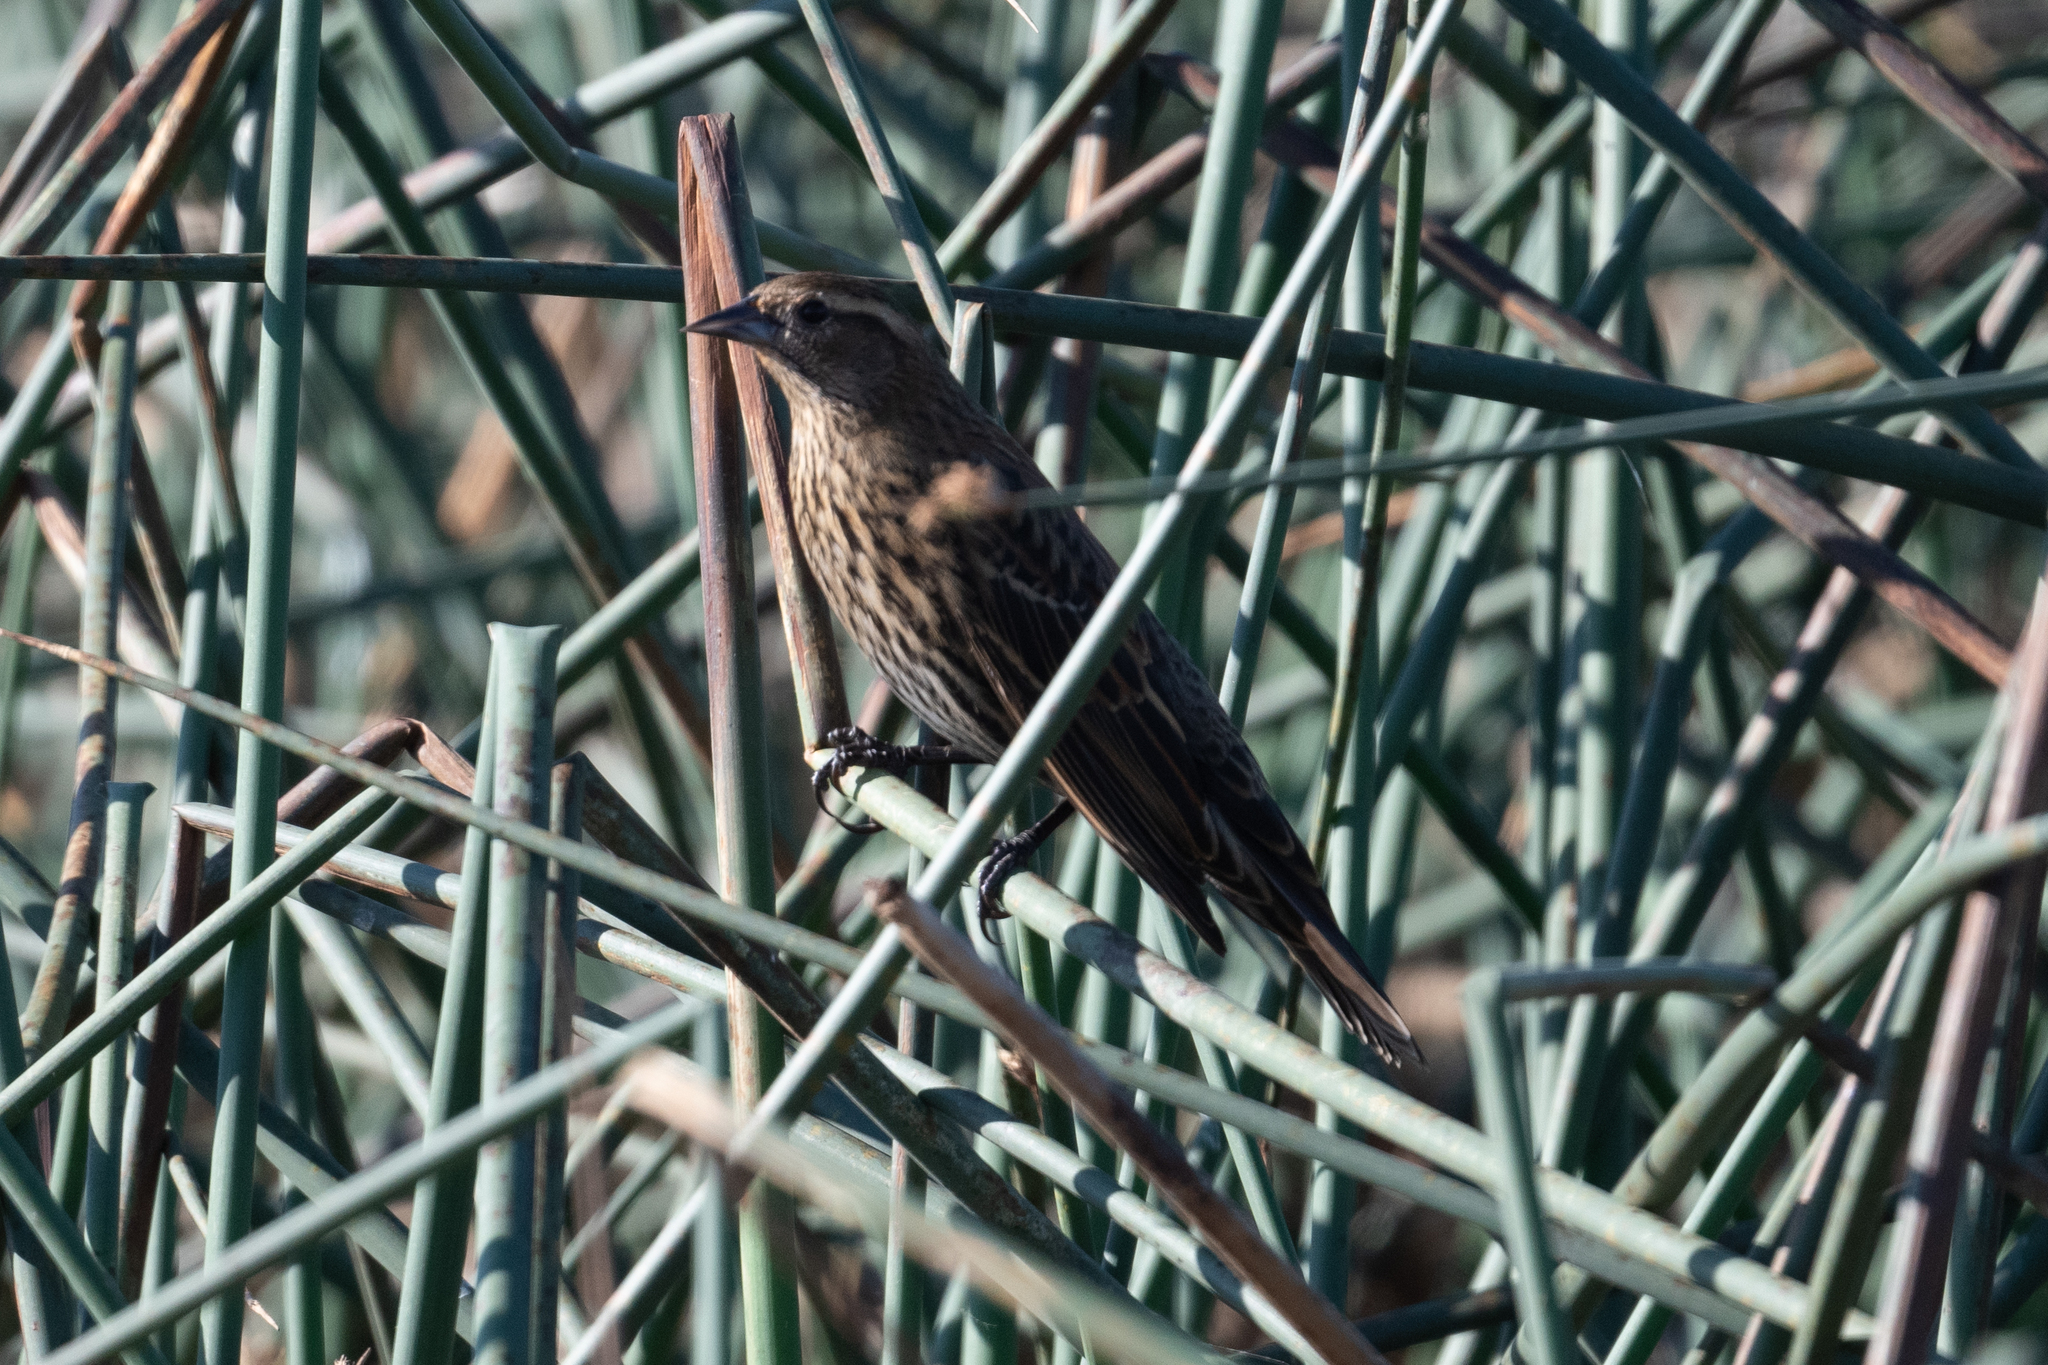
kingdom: Animalia
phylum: Chordata
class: Aves
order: Passeriformes
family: Icteridae
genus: Agelaius
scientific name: Agelaius phoeniceus
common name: Red-winged blackbird
